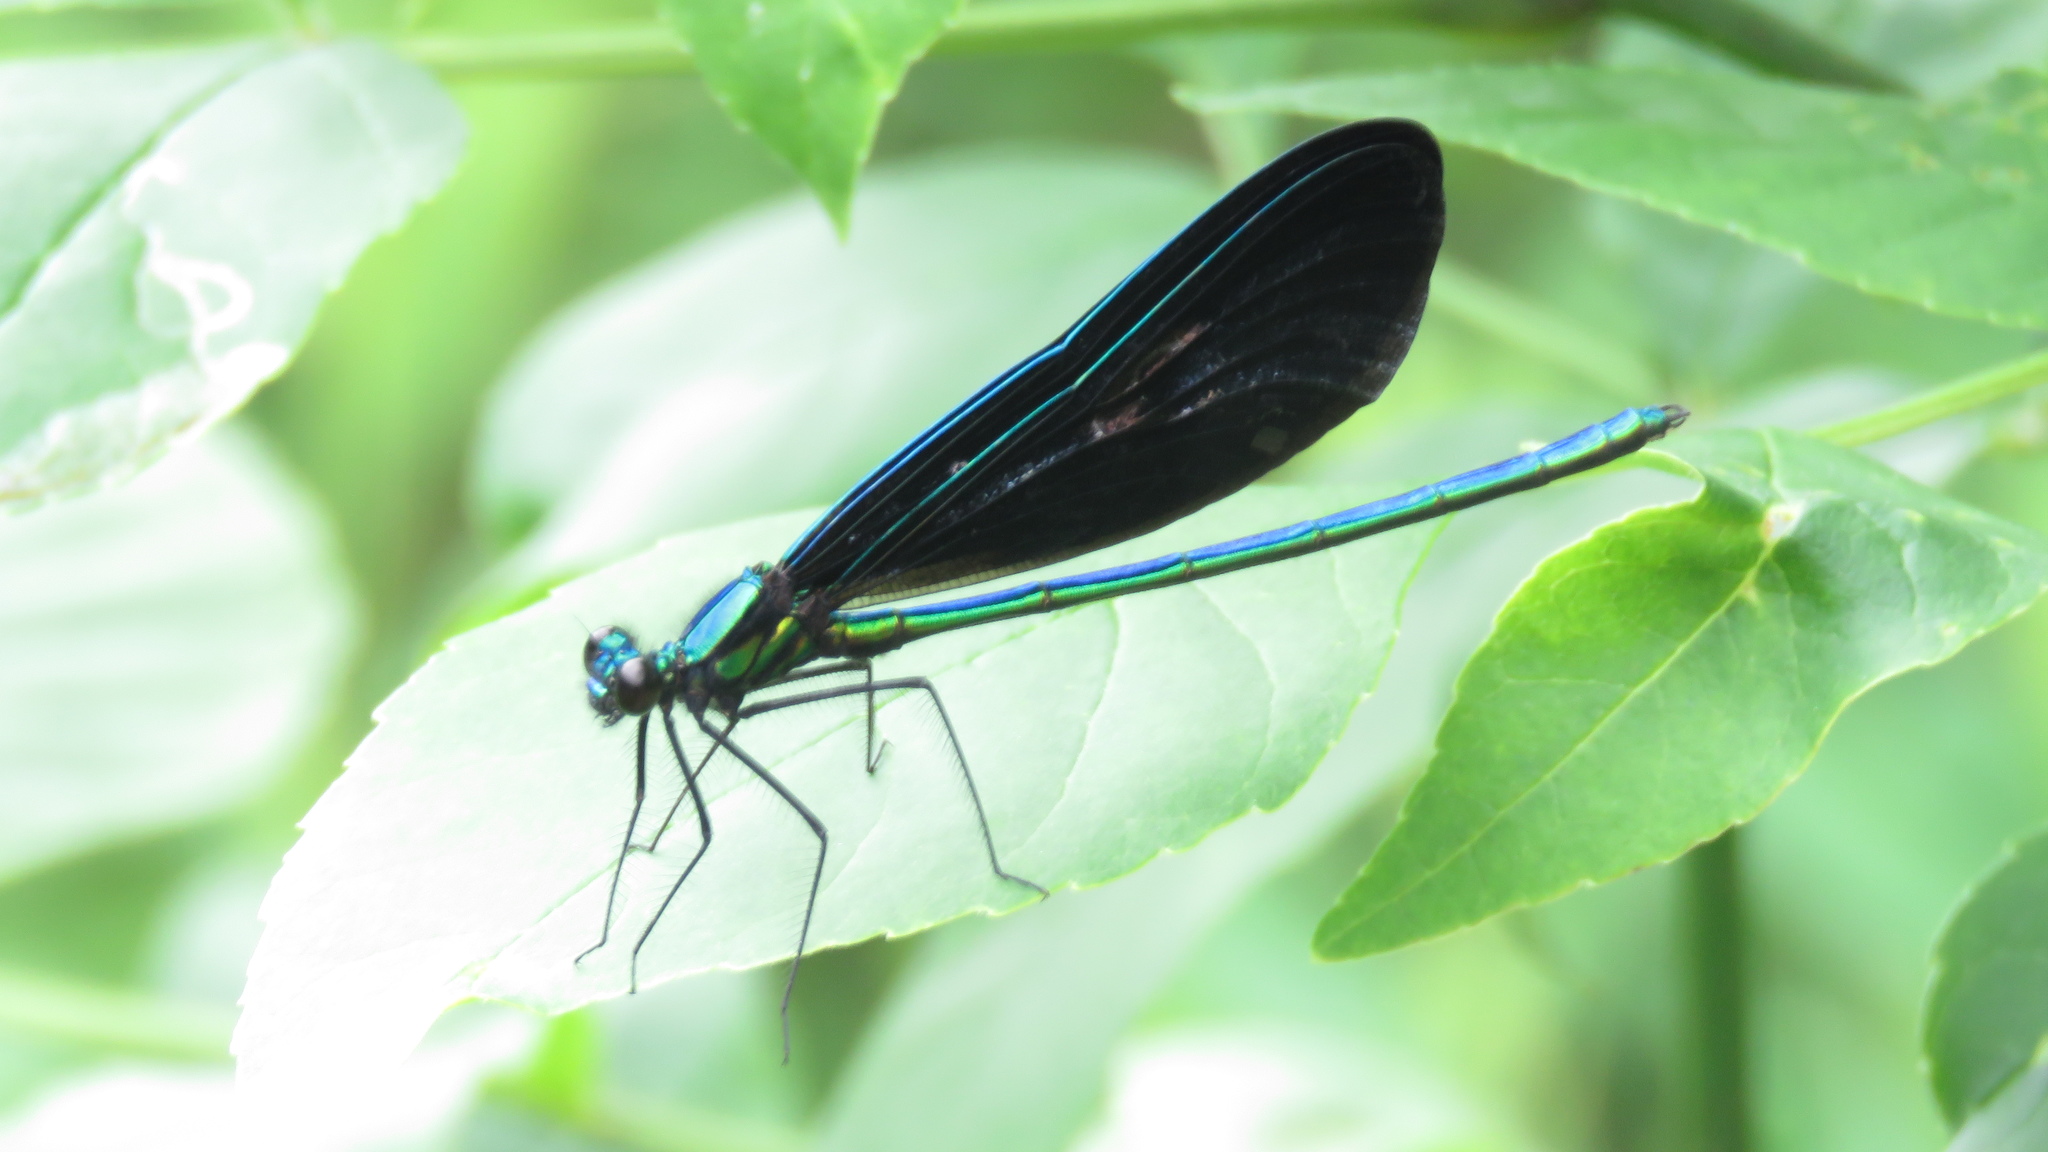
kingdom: Animalia
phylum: Arthropoda
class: Insecta
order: Odonata
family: Calopterygidae
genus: Calopteryx
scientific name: Calopteryx maculata
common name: Ebony jewelwing
